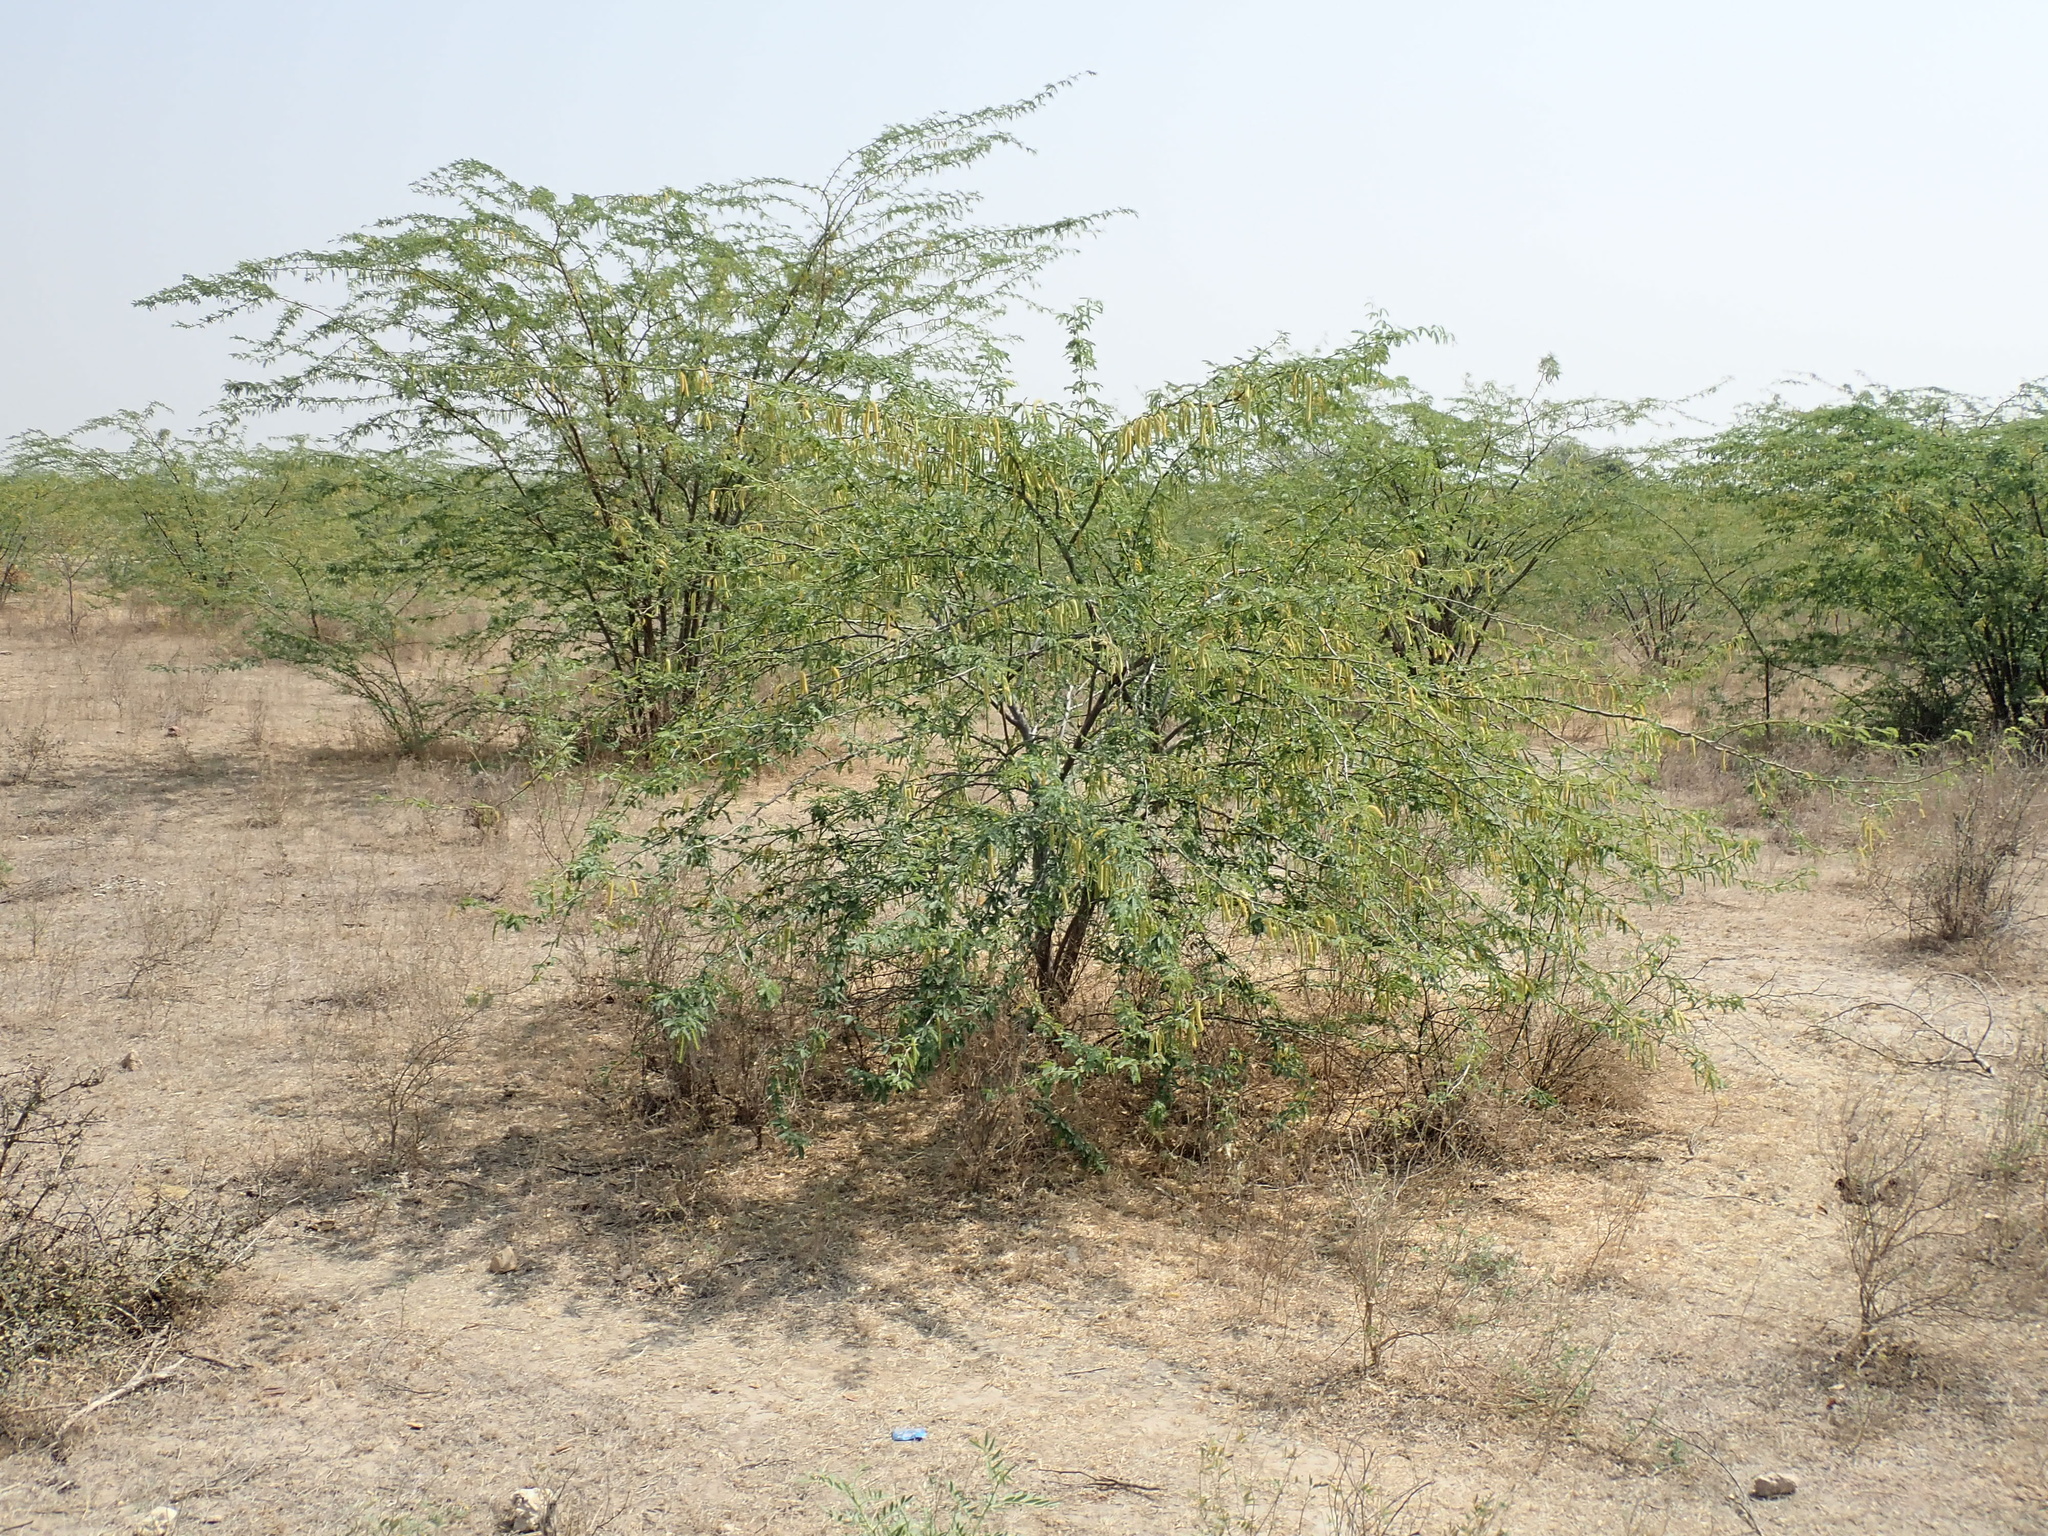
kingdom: Plantae
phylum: Tracheophyta
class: Magnoliopsida
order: Fabales
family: Fabaceae
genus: Prosopis
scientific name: Prosopis juliflora
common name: Mesquite
